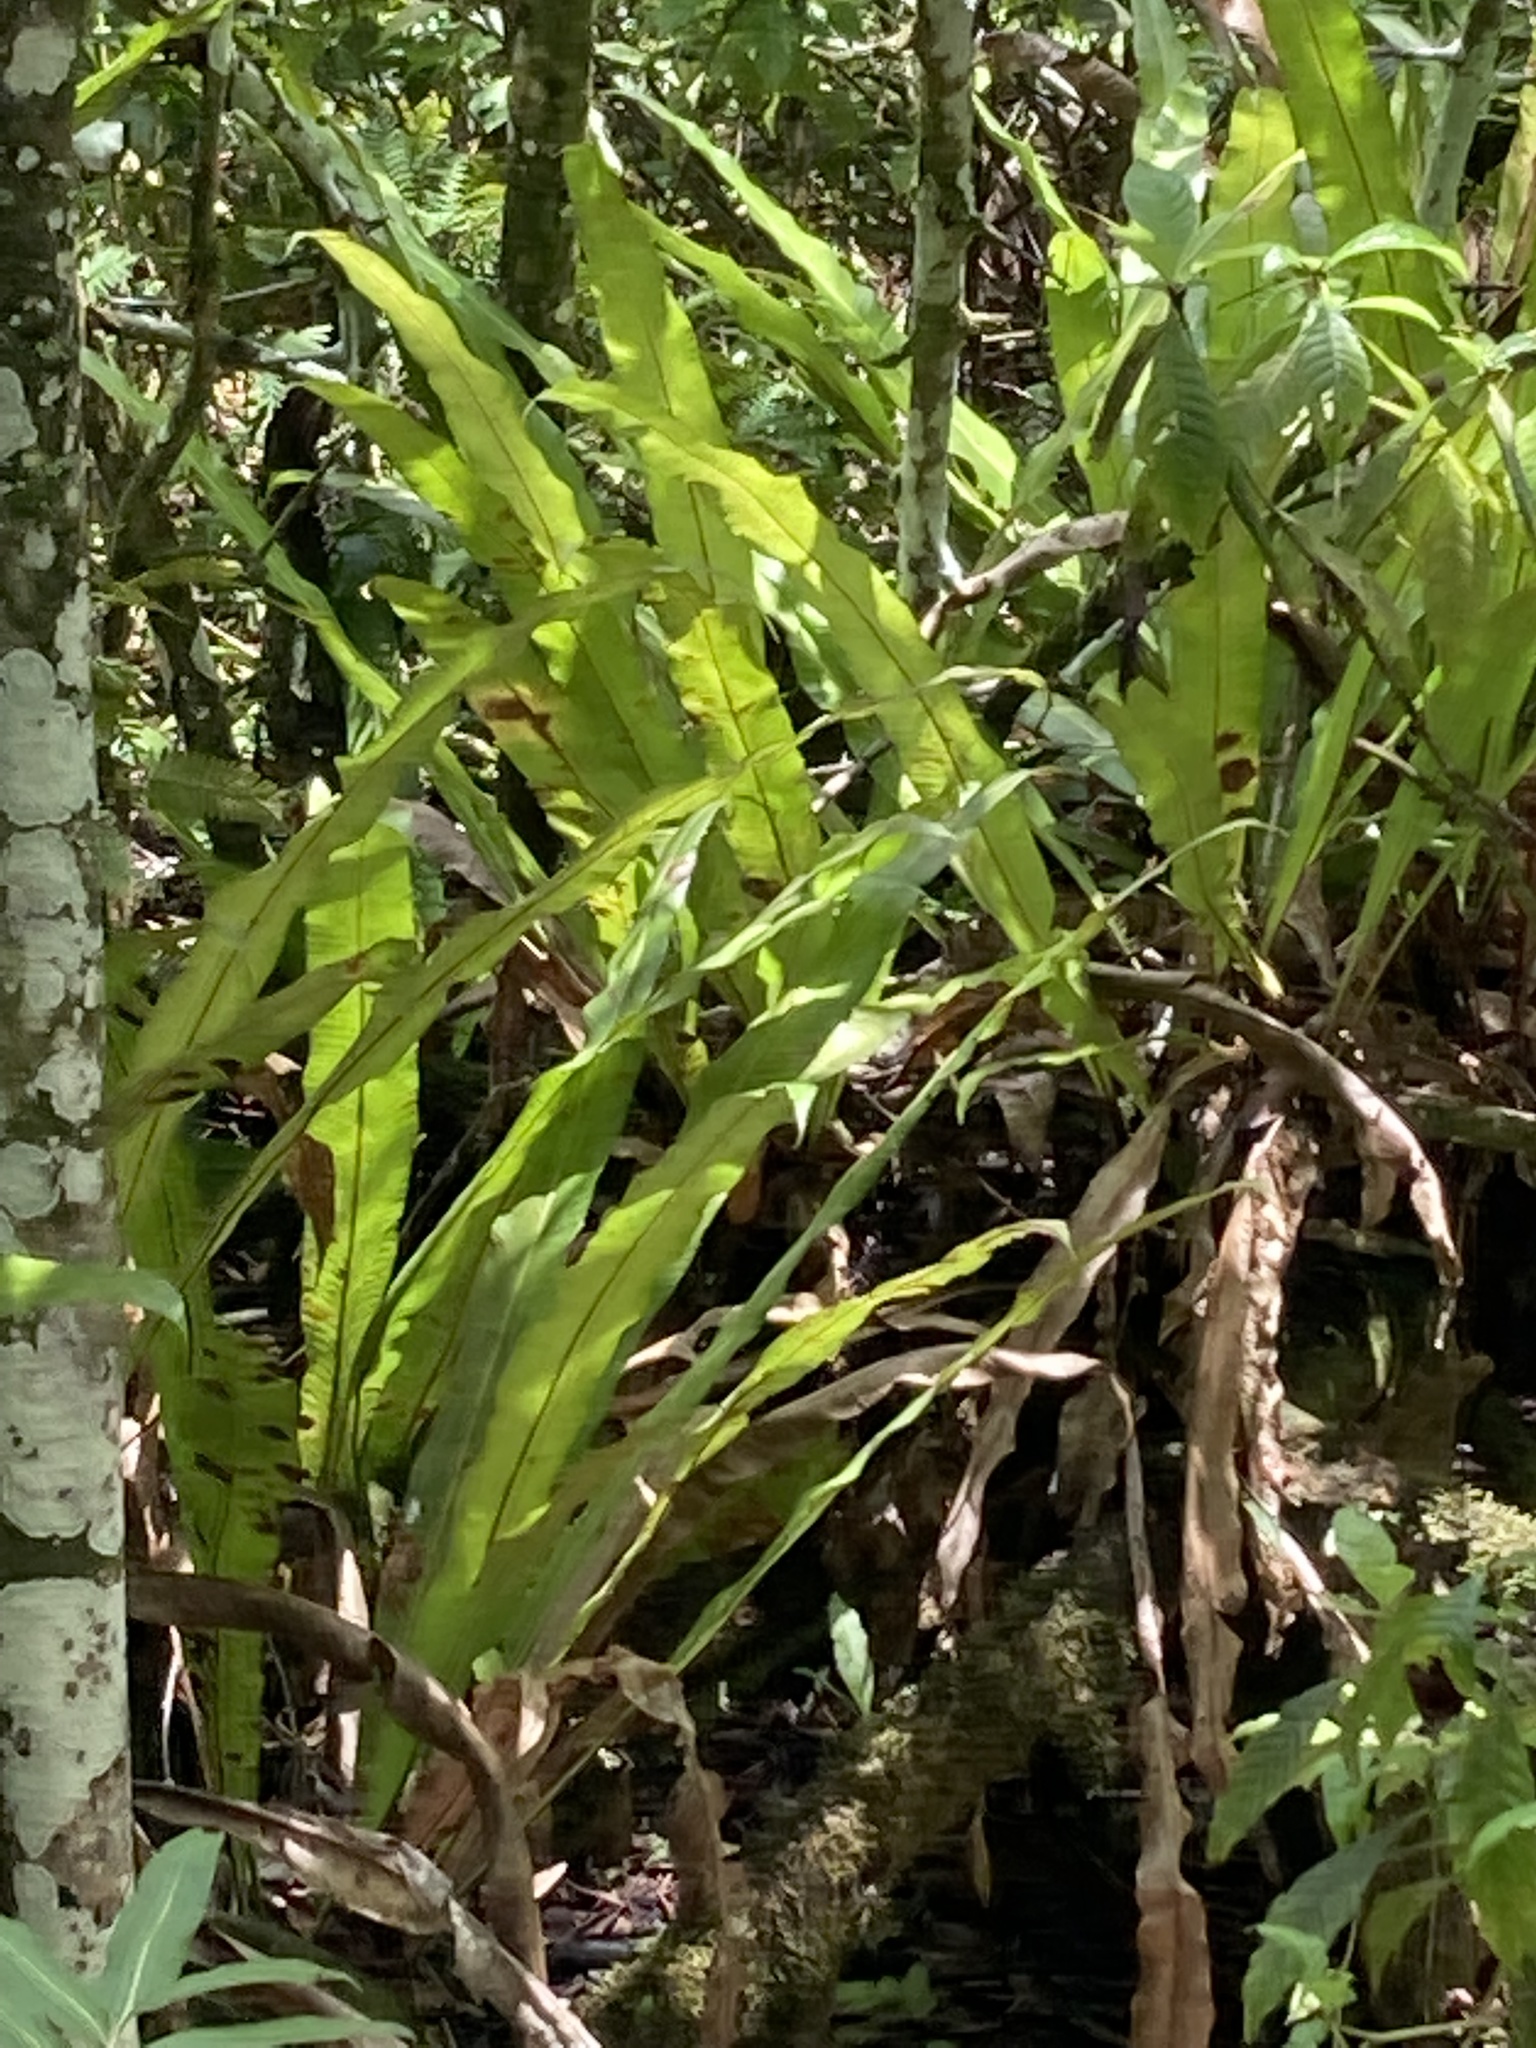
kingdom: Plantae
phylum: Tracheophyta
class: Polypodiopsida
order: Polypodiales
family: Polypodiaceae
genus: Campyloneurum
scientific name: Campyloneurum phyllitidis
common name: Cow-tongue fern
